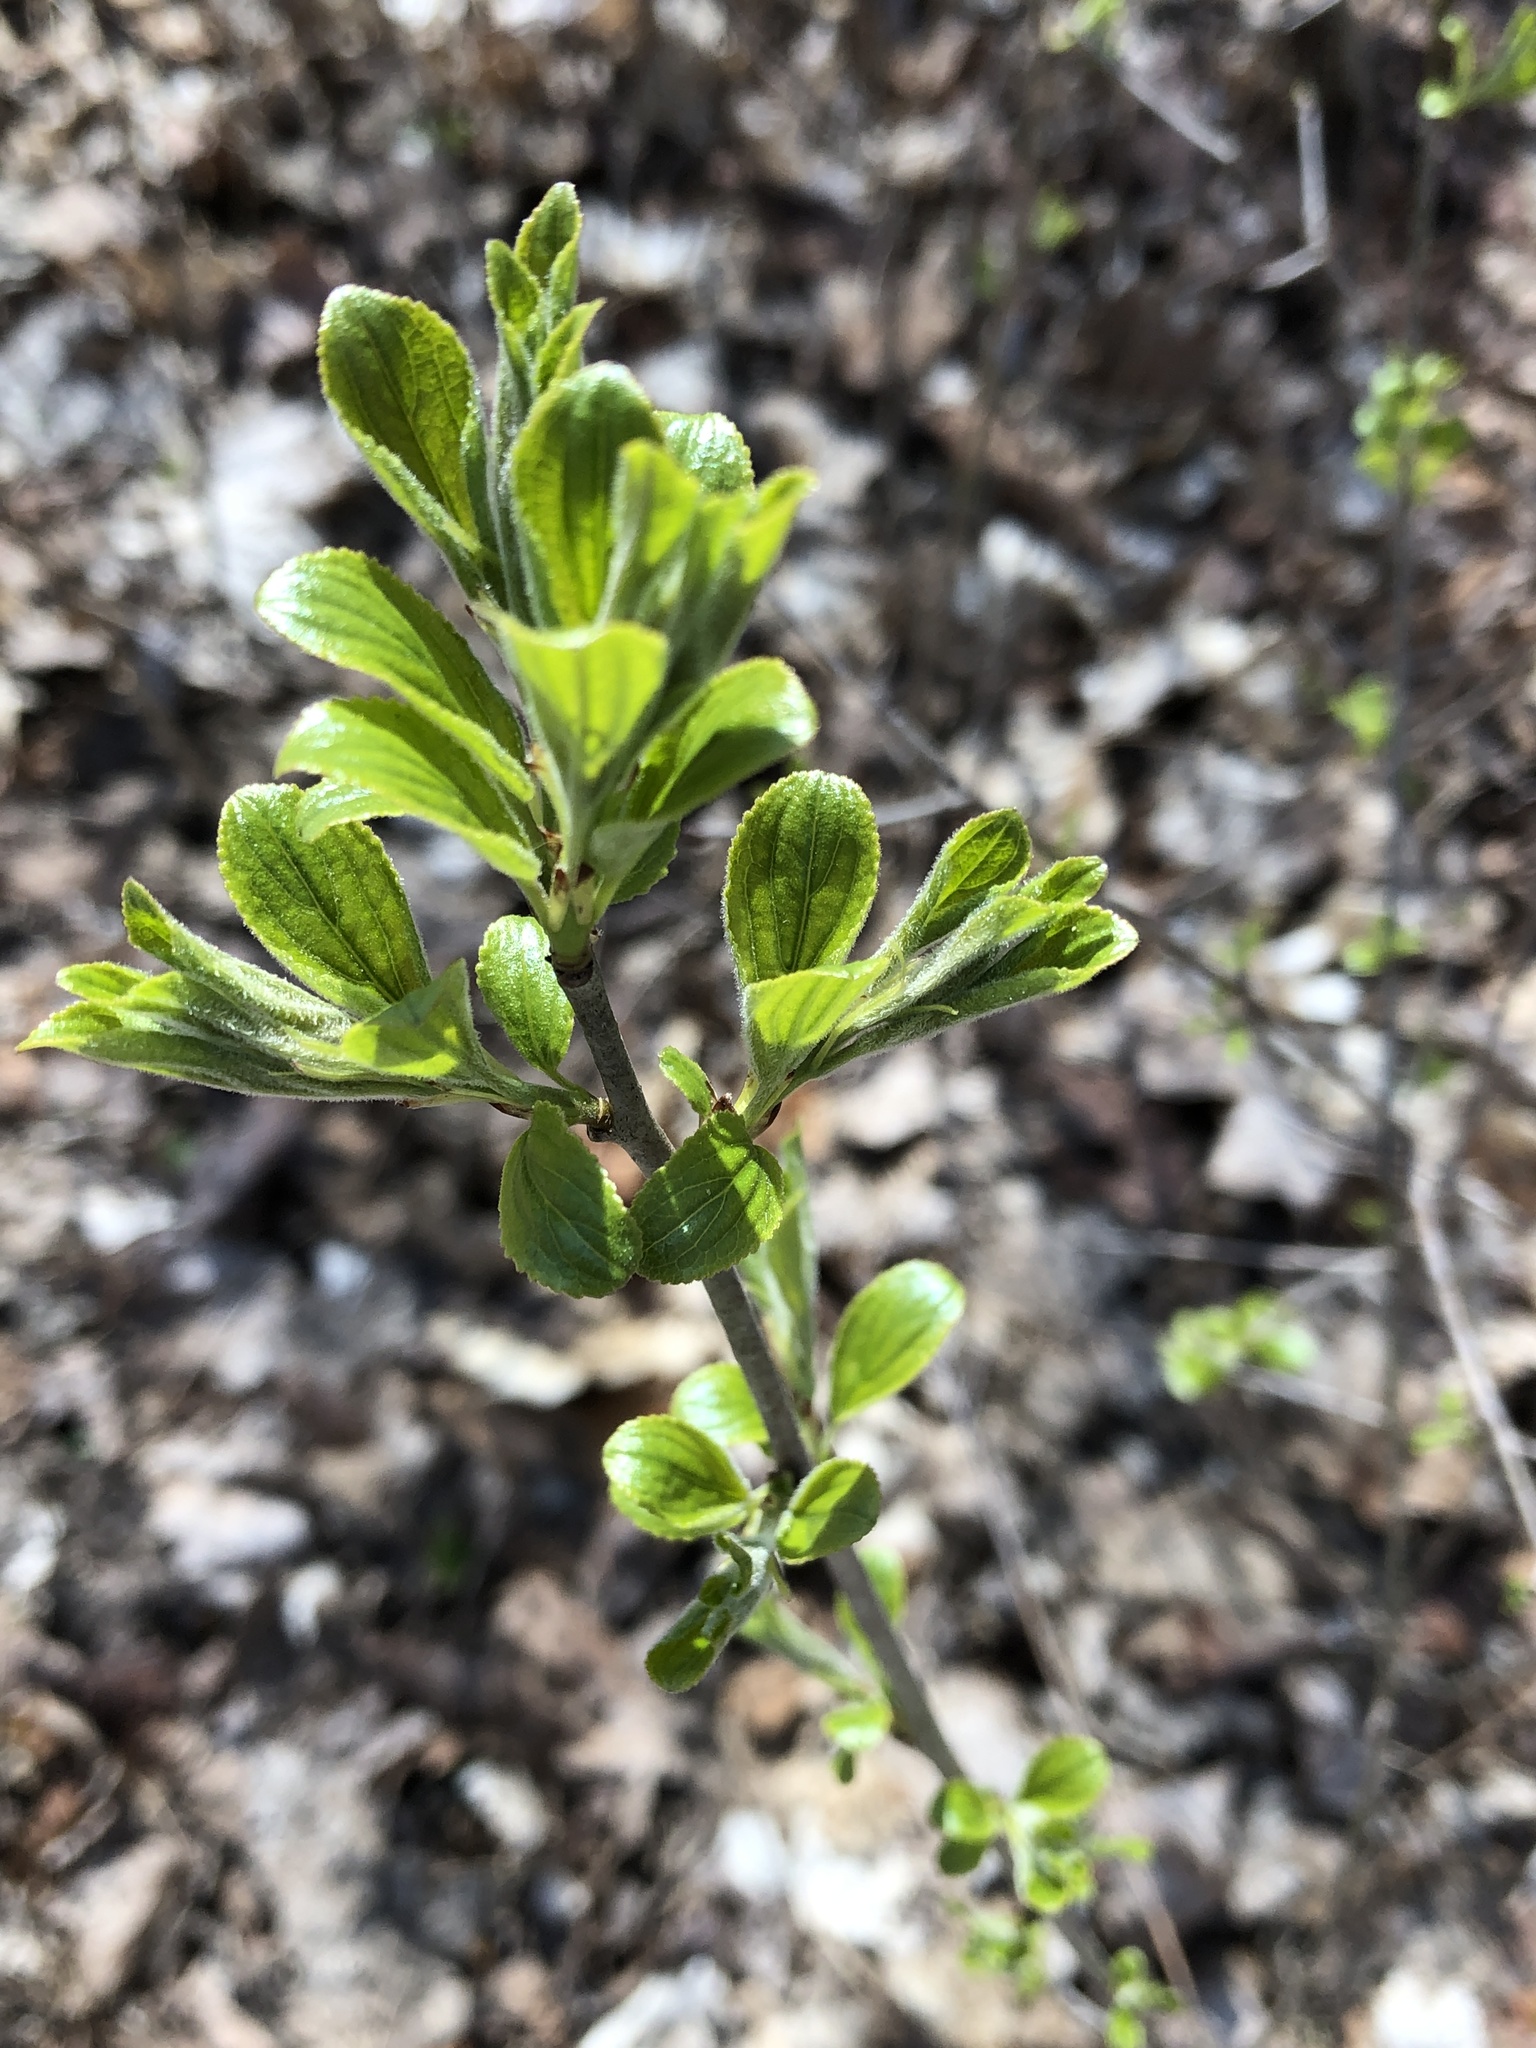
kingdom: Plantae
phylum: Tracheophyta
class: Magnoliopsida
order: Rosales
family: Rhamnaceae
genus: Rhamnus
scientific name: Rhamnus cathartica
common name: Common buckthorn
